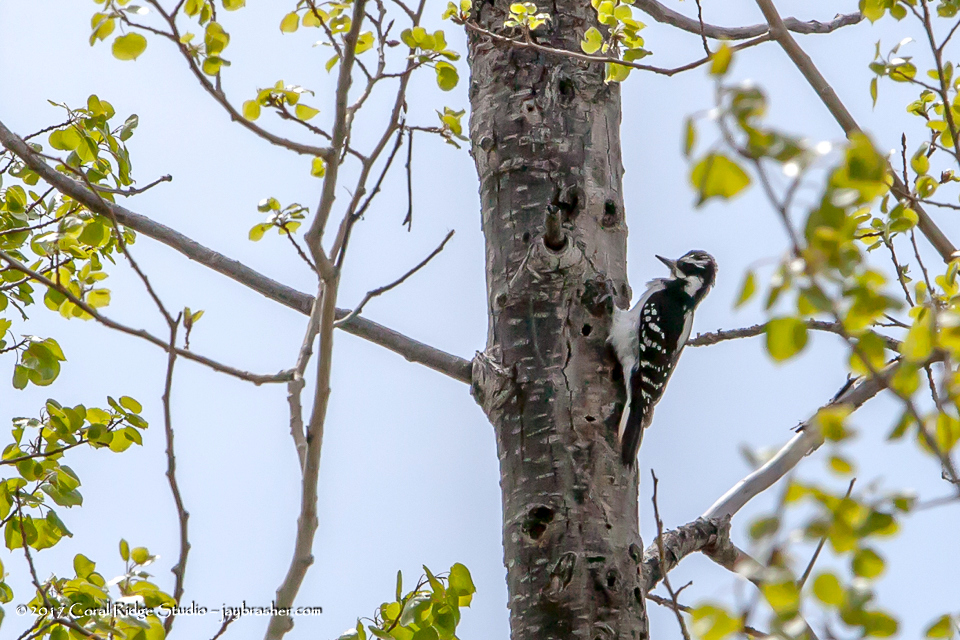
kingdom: Animalia
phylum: Chordata
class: Aves
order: Piciformes
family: Picidae
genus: Leuconotopicus
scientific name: Leuconotopicus villosus
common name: Hairy woodpecker
